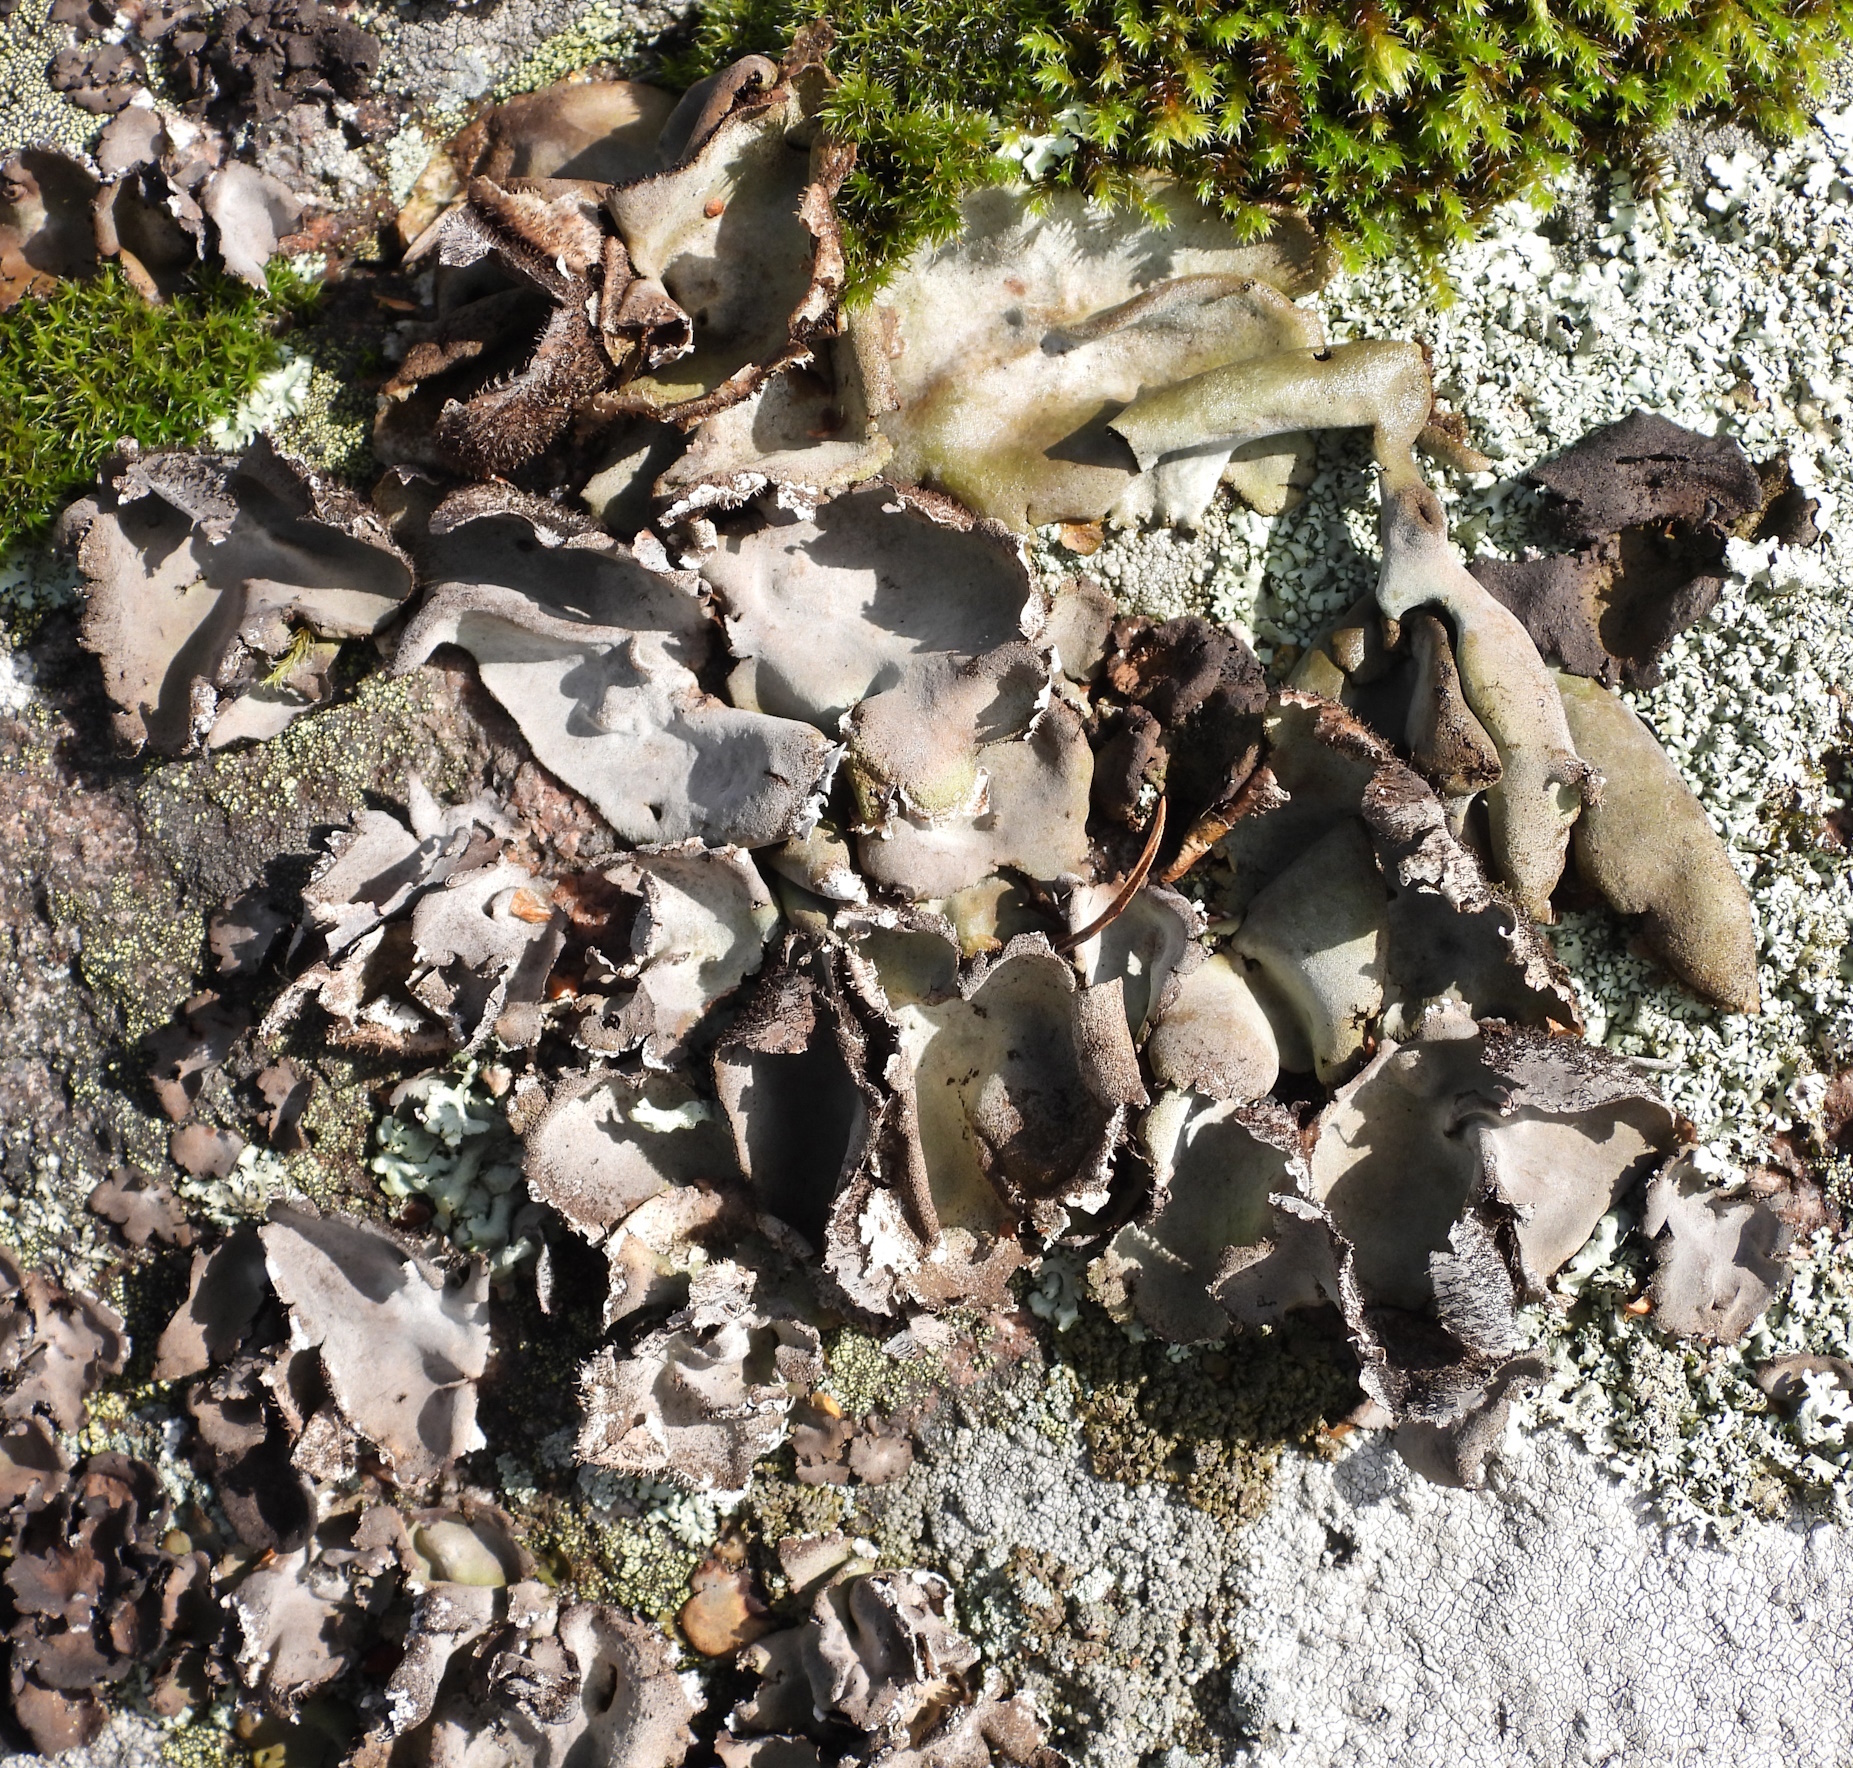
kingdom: Fungi
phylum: Ascomycota
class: Lecanoromycetes
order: Umbilicariales
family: Umbilicariaceae
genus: Umbilicaria
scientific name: Umbilicaria hirsuta
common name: Granulating rocktripe lichen
